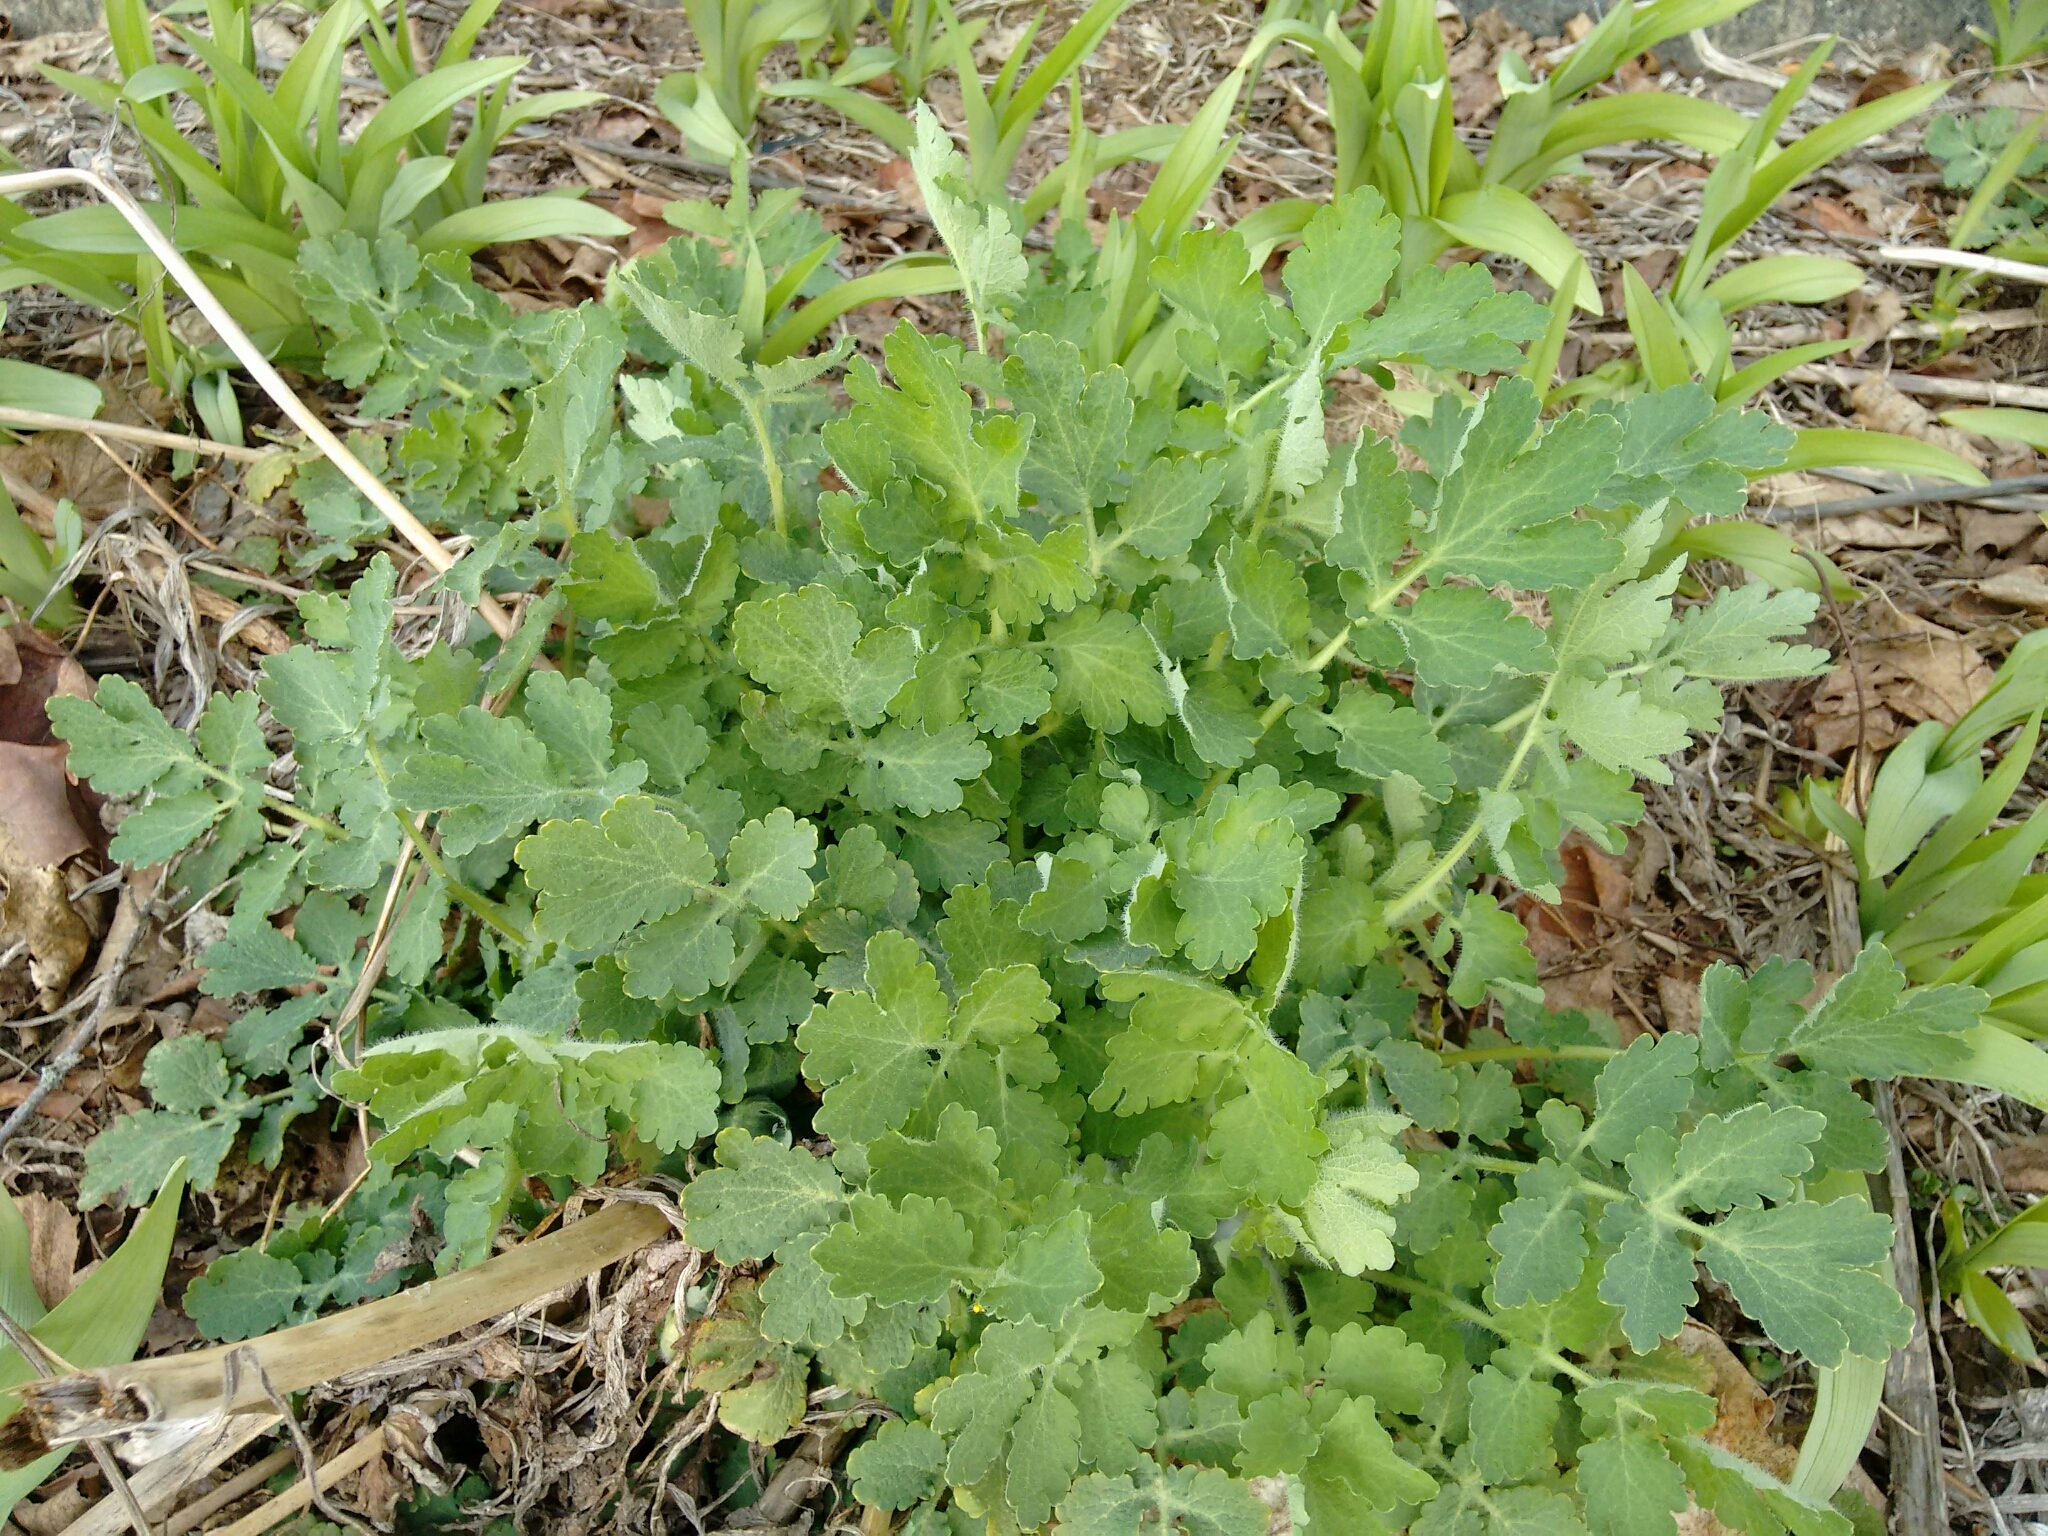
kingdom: Plantae
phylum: Tracheophyta
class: Magnoliopsida
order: Ranunculales
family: Papaveraceae
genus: Chelidonium
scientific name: Chelidonium majus
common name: Greater celandine
